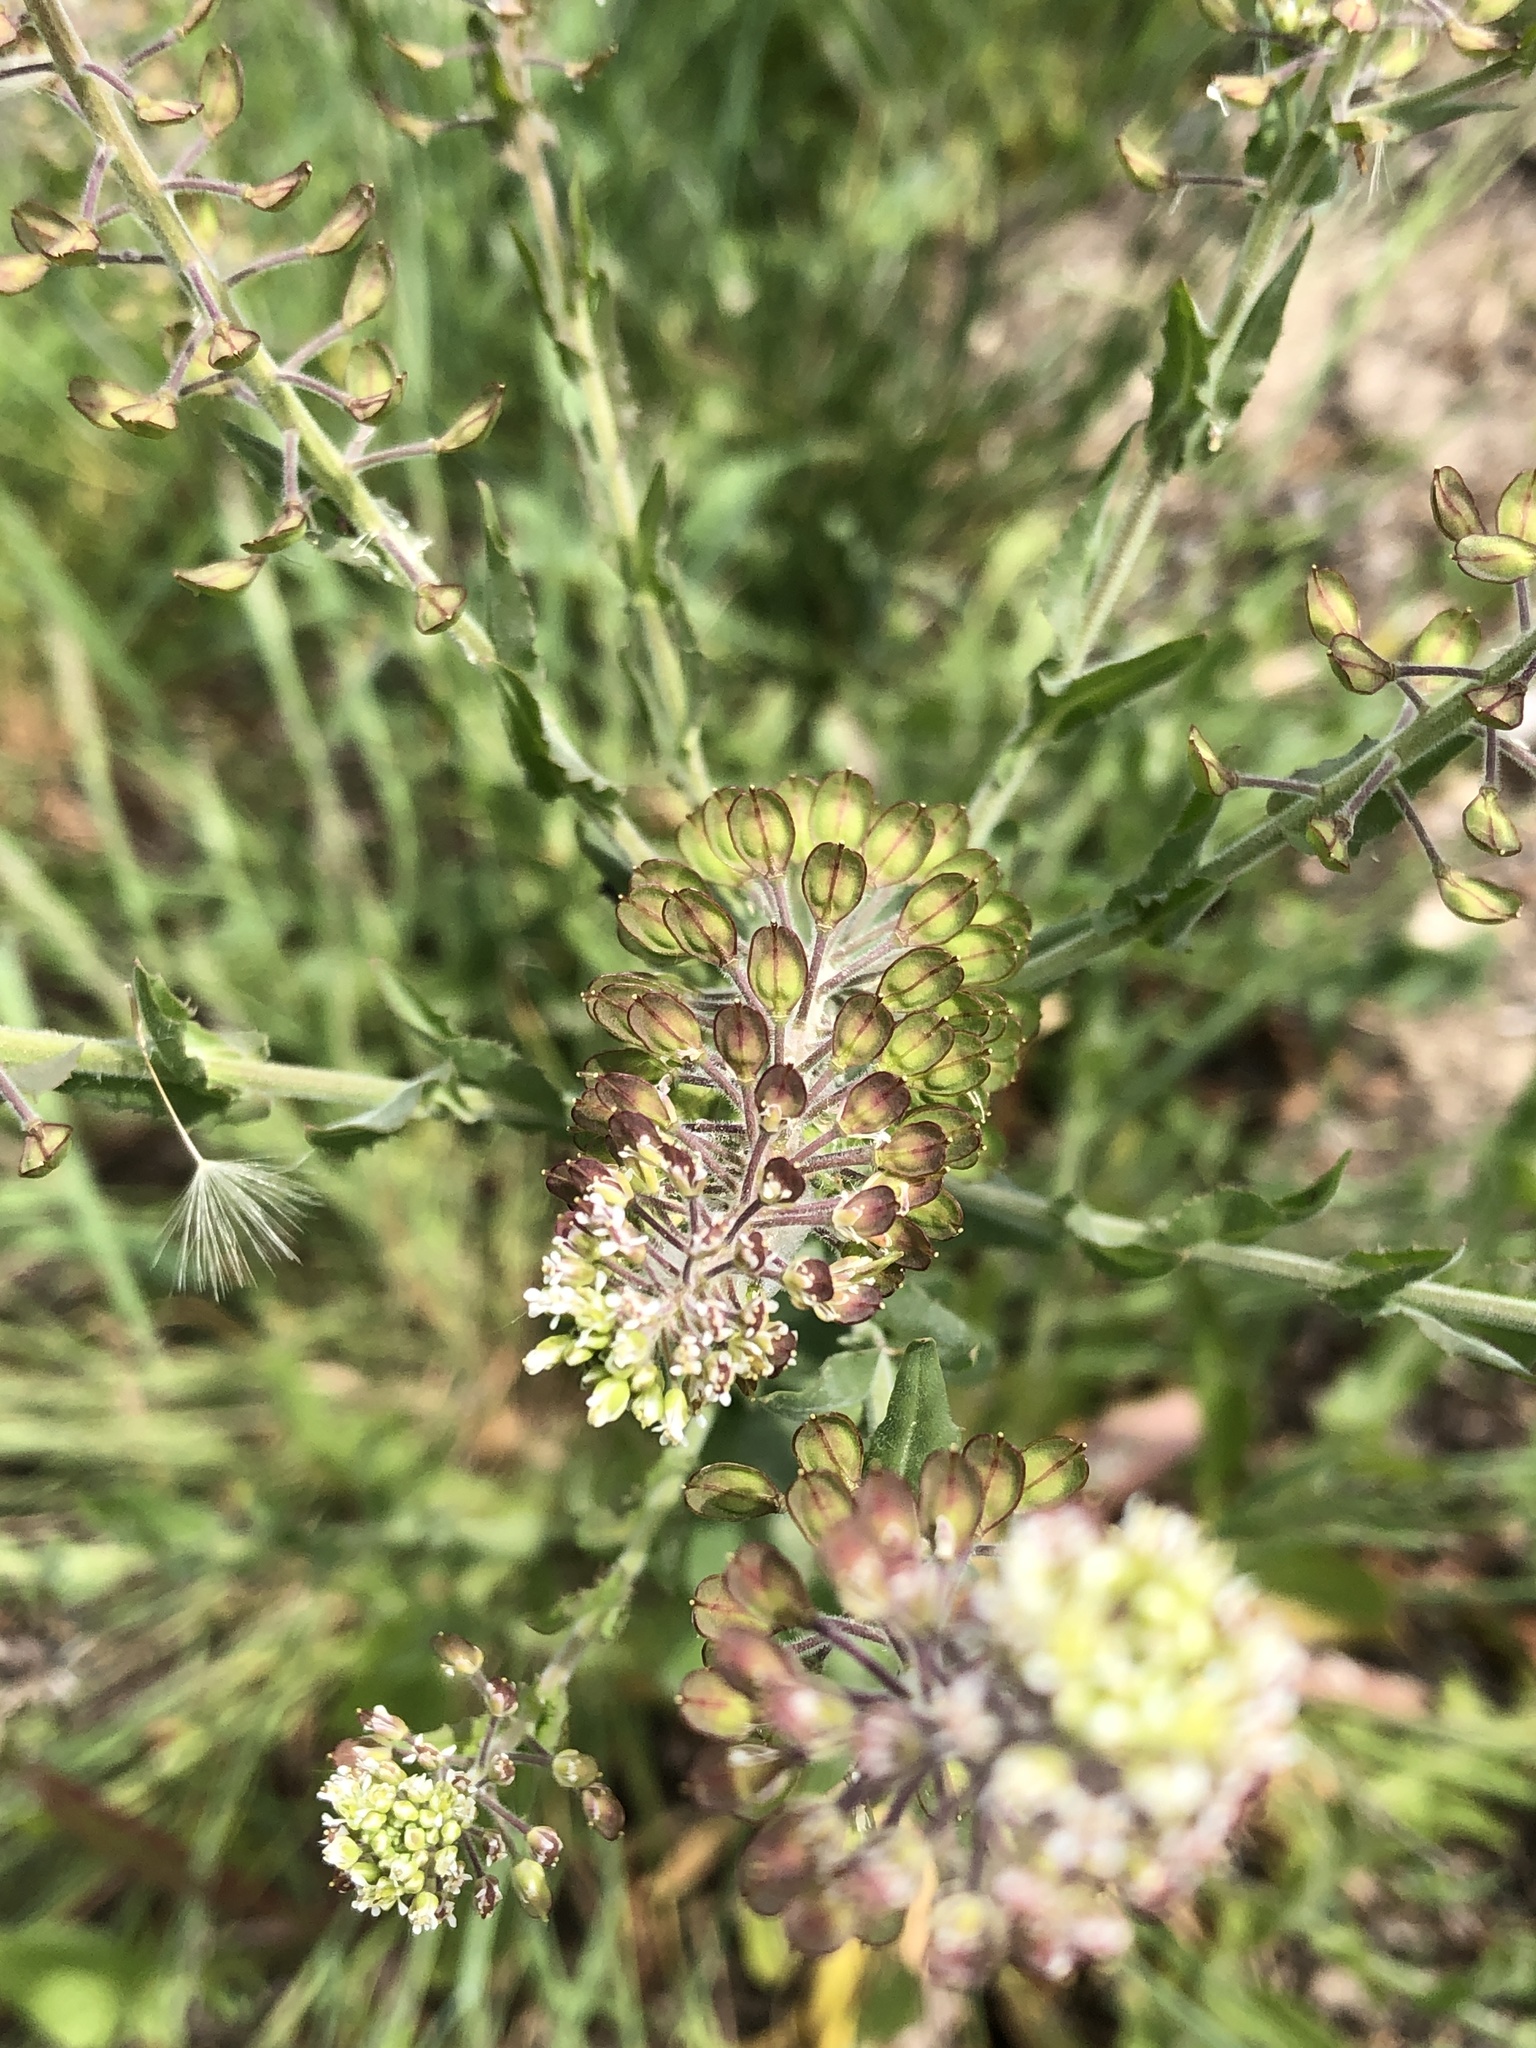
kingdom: Plantae
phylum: Tracheophyta
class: Magnoliopsida
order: Brassicales
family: Brassicaceae
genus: Lepidium
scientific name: Lepidium campestre
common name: Field pepperwort
